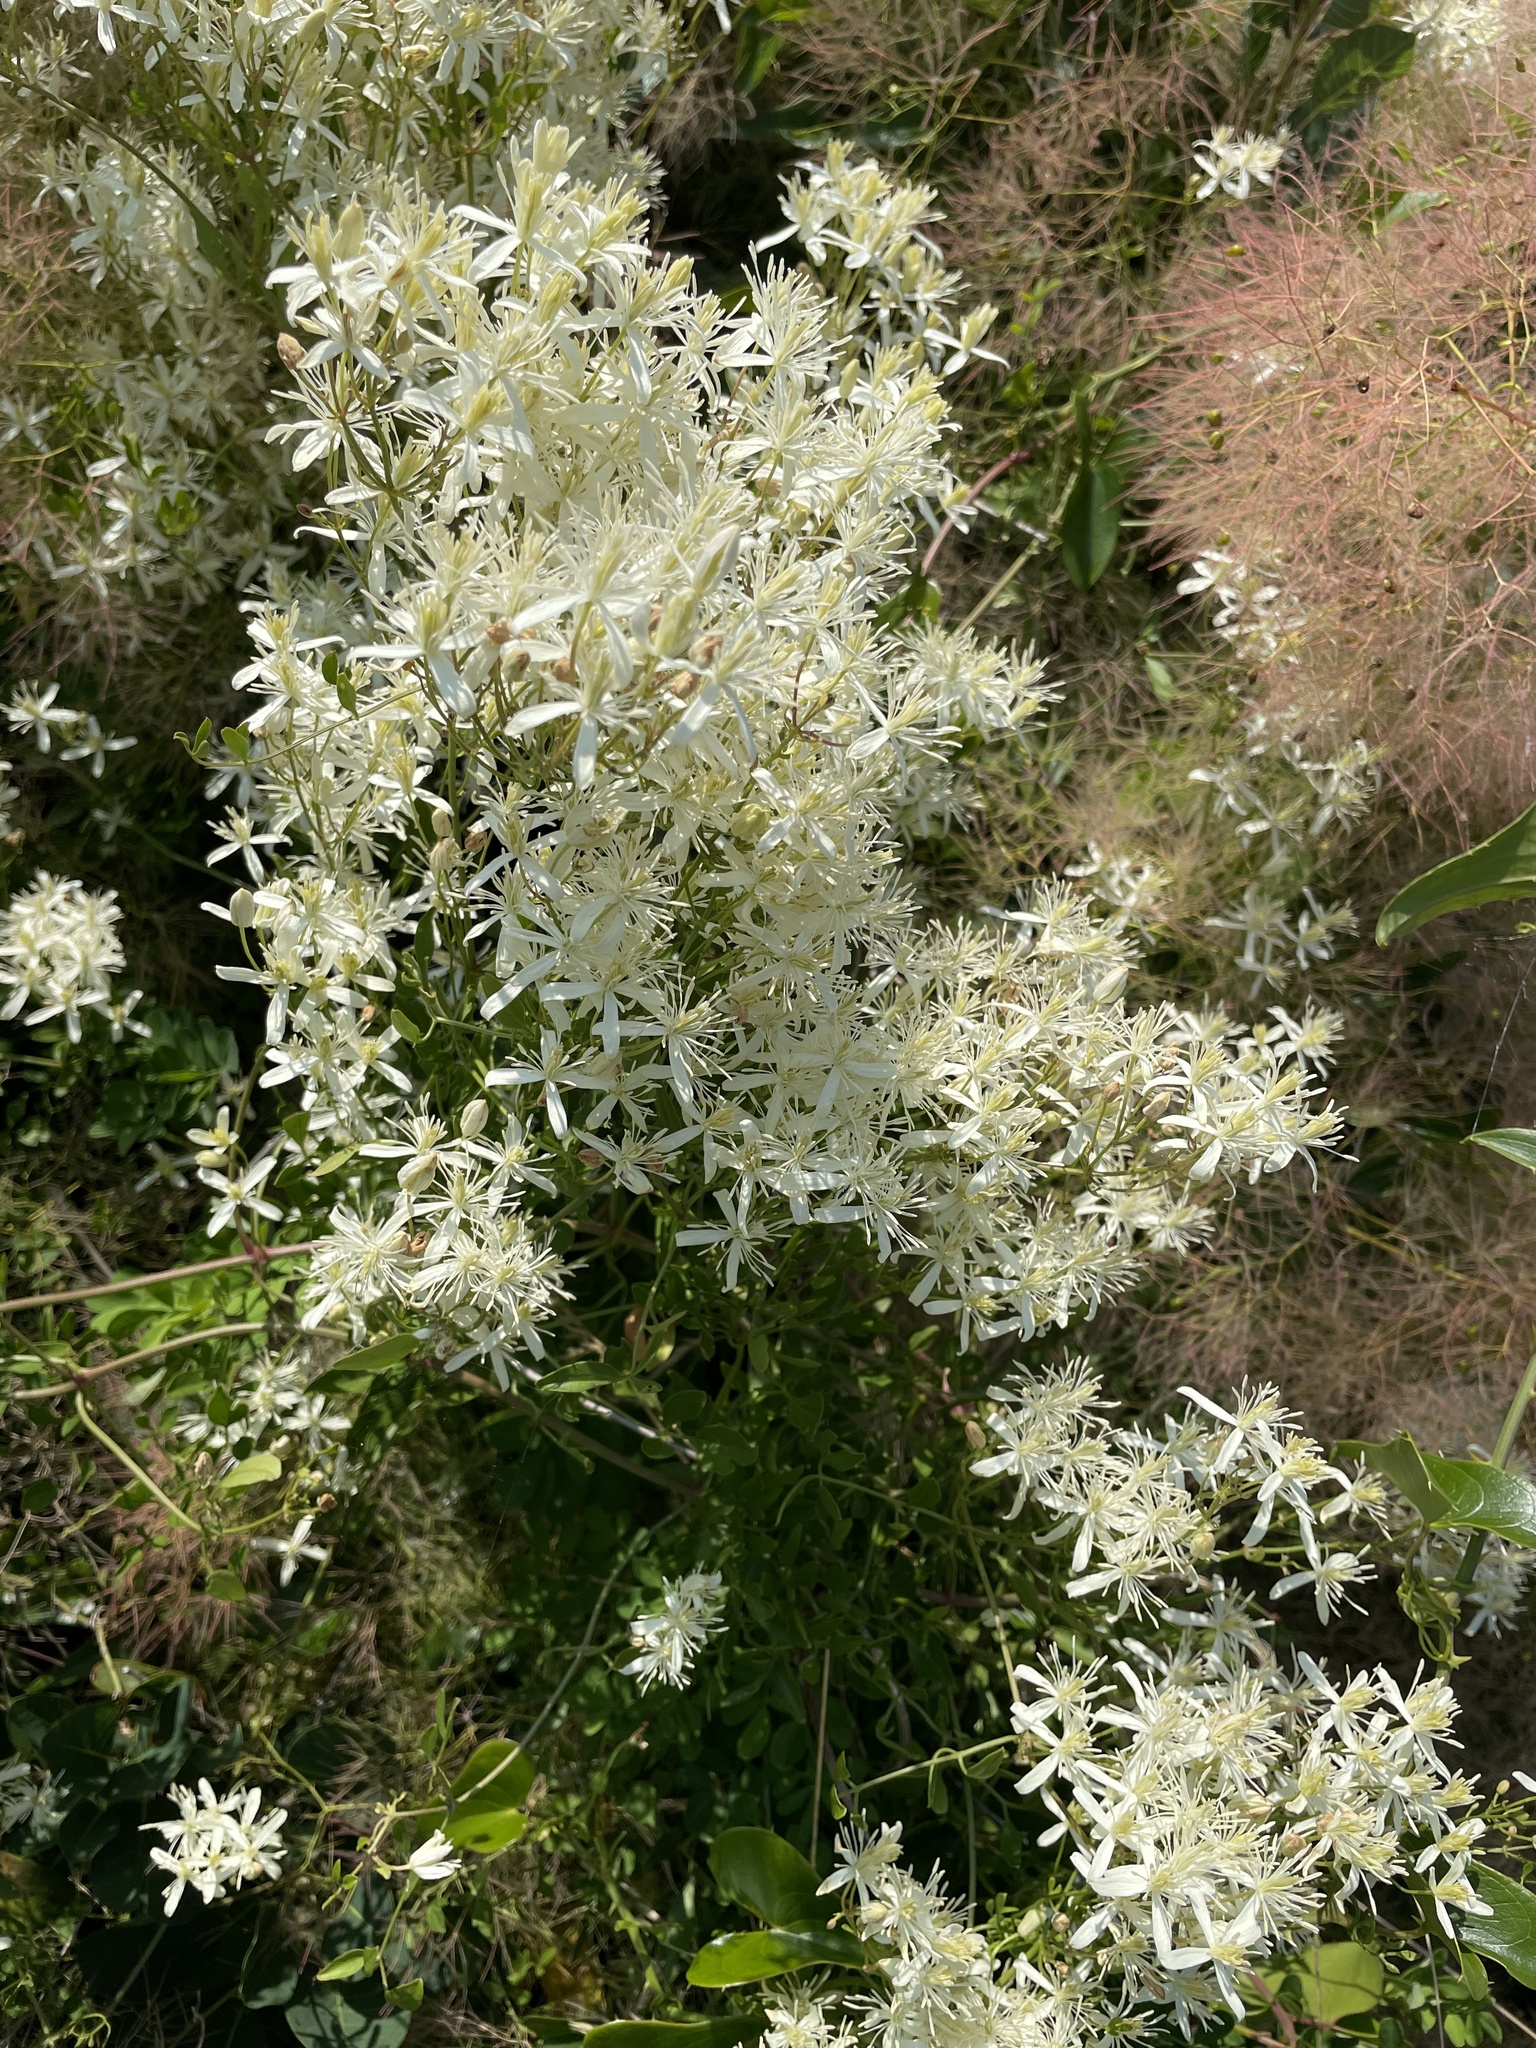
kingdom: Plantae
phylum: Tracheophyta
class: Magnoliopsida
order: Ranunculales
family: Ranunculaceae
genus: Clematis
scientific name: Clematis flammula
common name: Virgin's-bower
